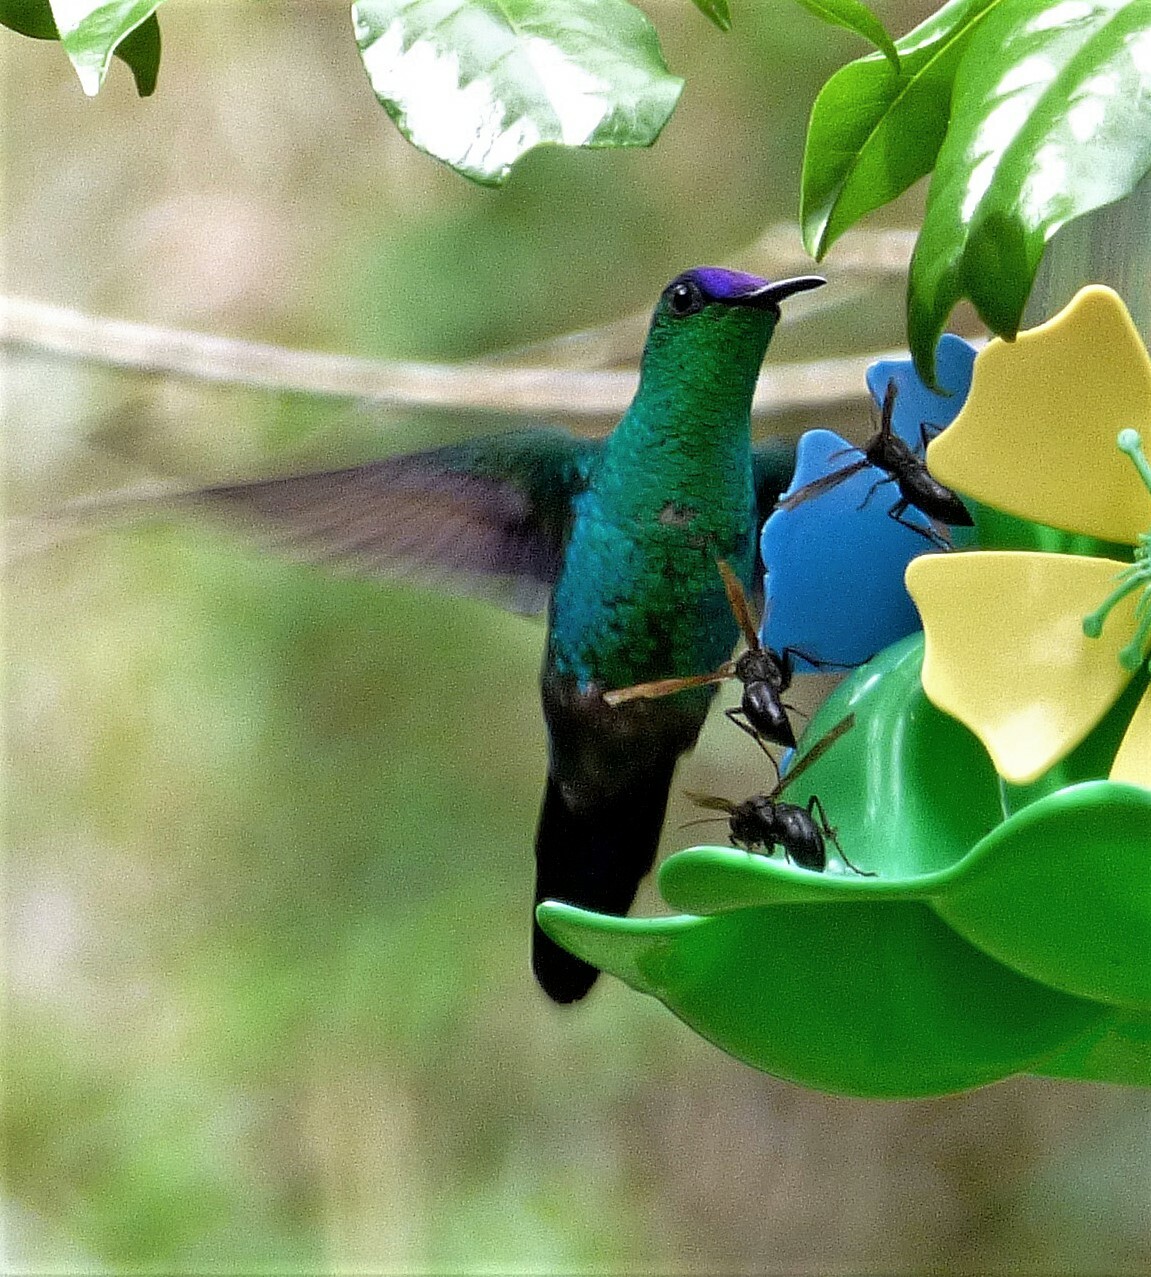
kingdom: Animalia
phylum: Chordata
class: Aves
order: Apodiformes
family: Trochilidae
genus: Thalurania
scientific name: Thalurania glaucopis
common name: Violet-capped woodnymph
